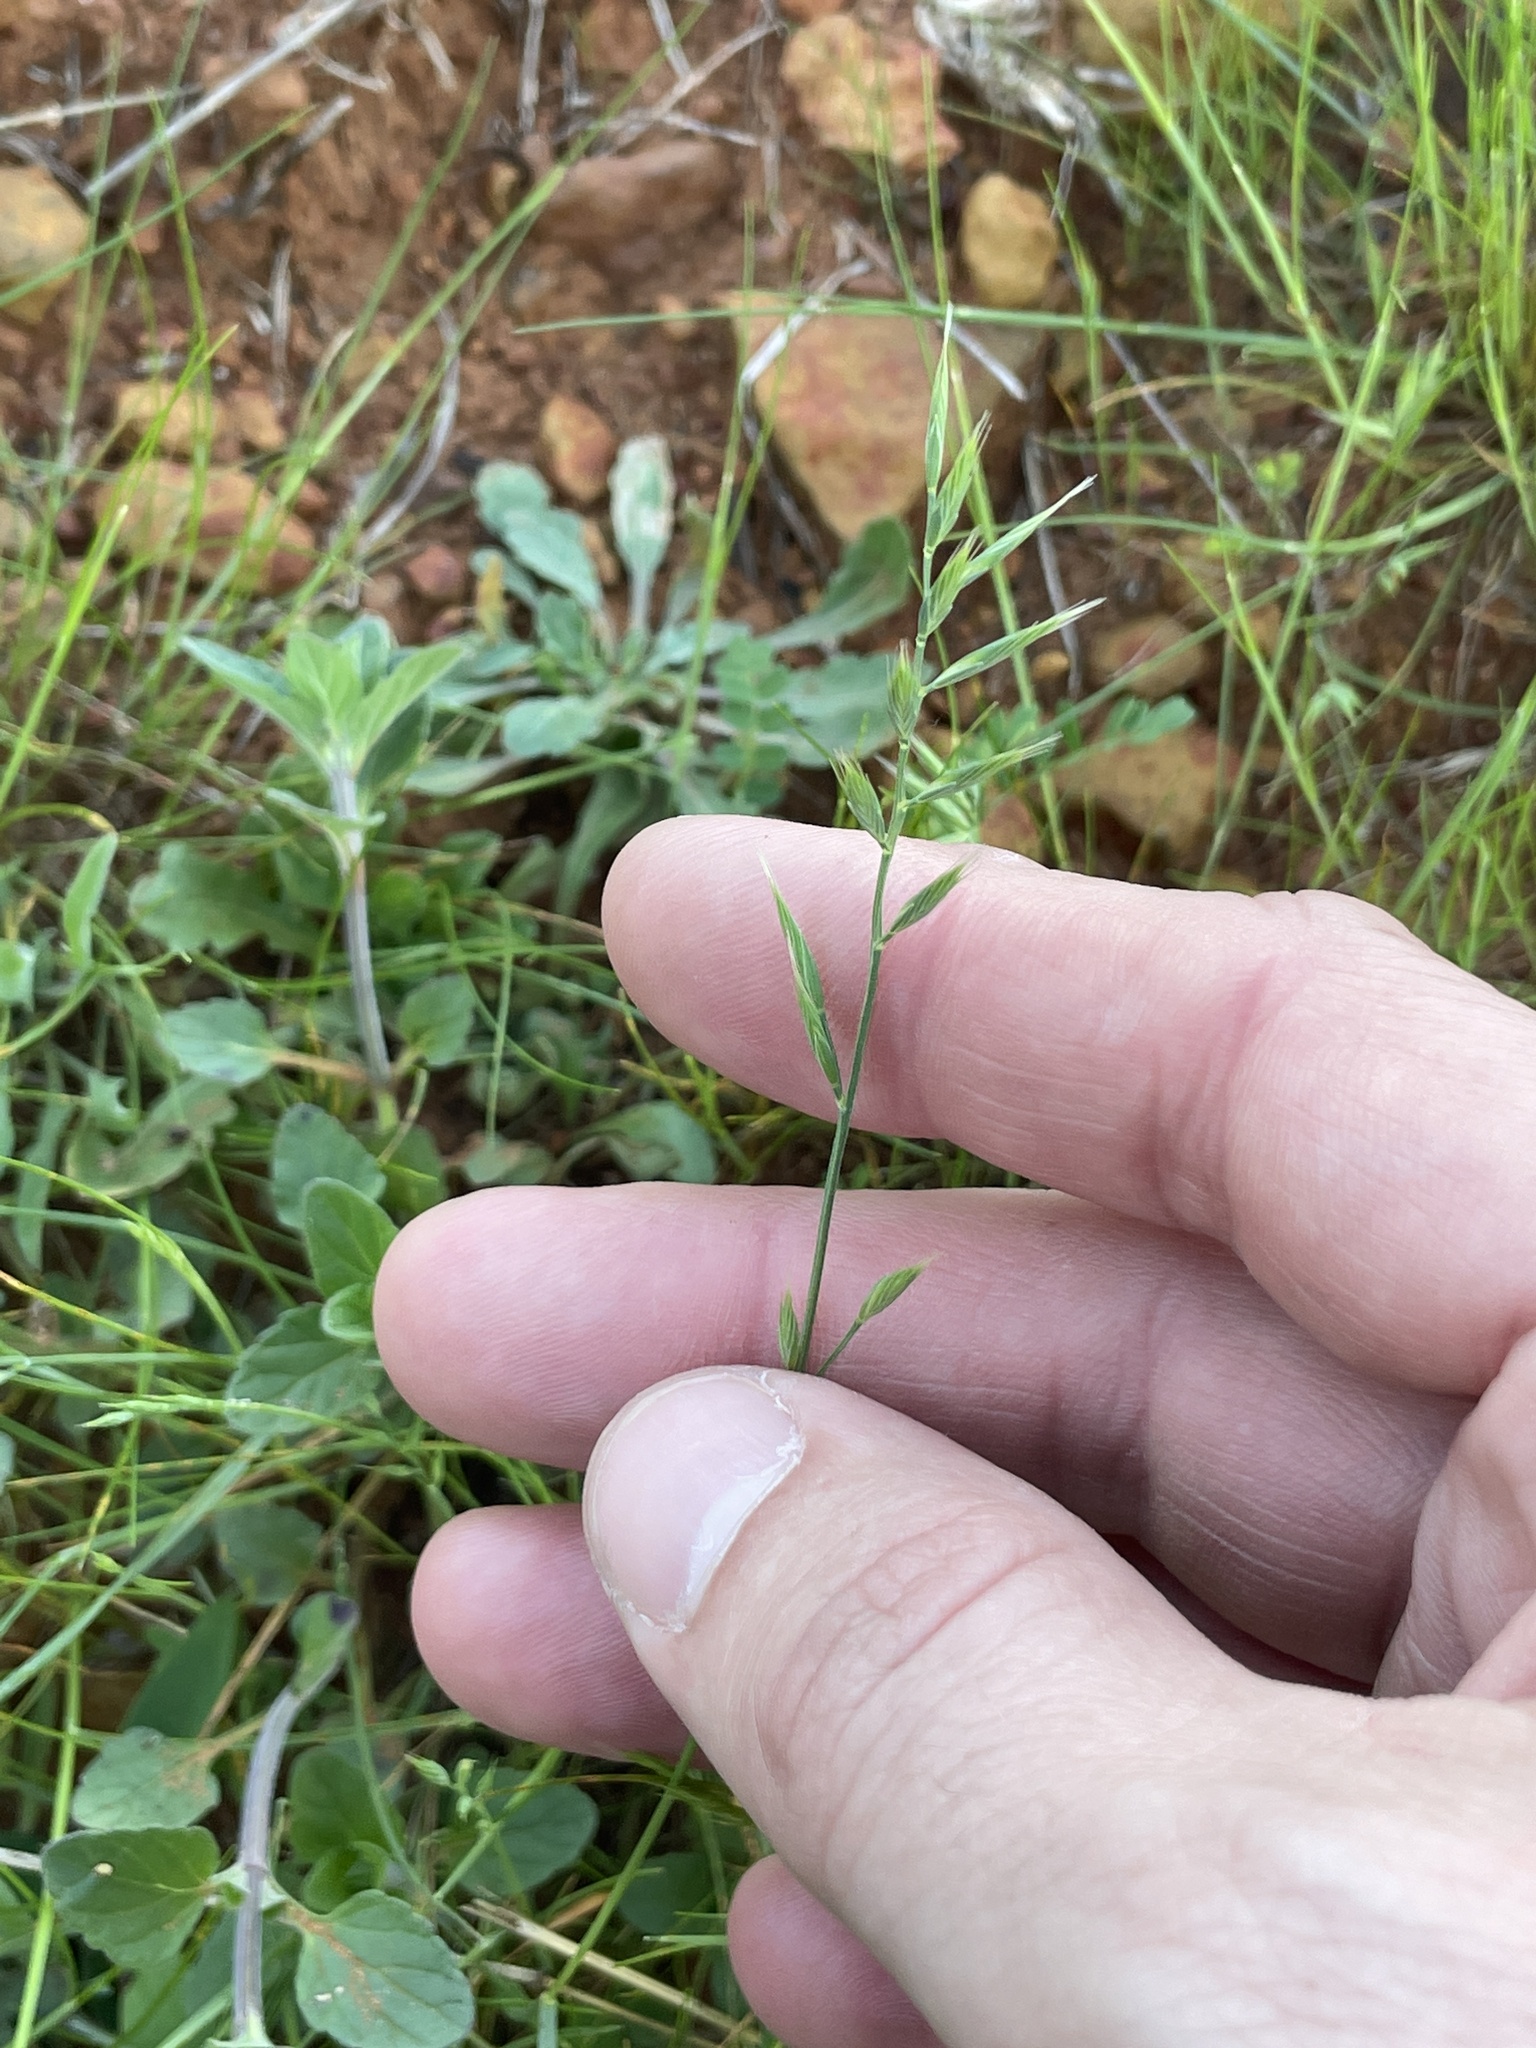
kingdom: Plantae
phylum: Tracheophyta
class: Liliopsida
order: Poales
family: Poaceae
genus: Festuca
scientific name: Festuca octoflora
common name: Sixweeks grass
